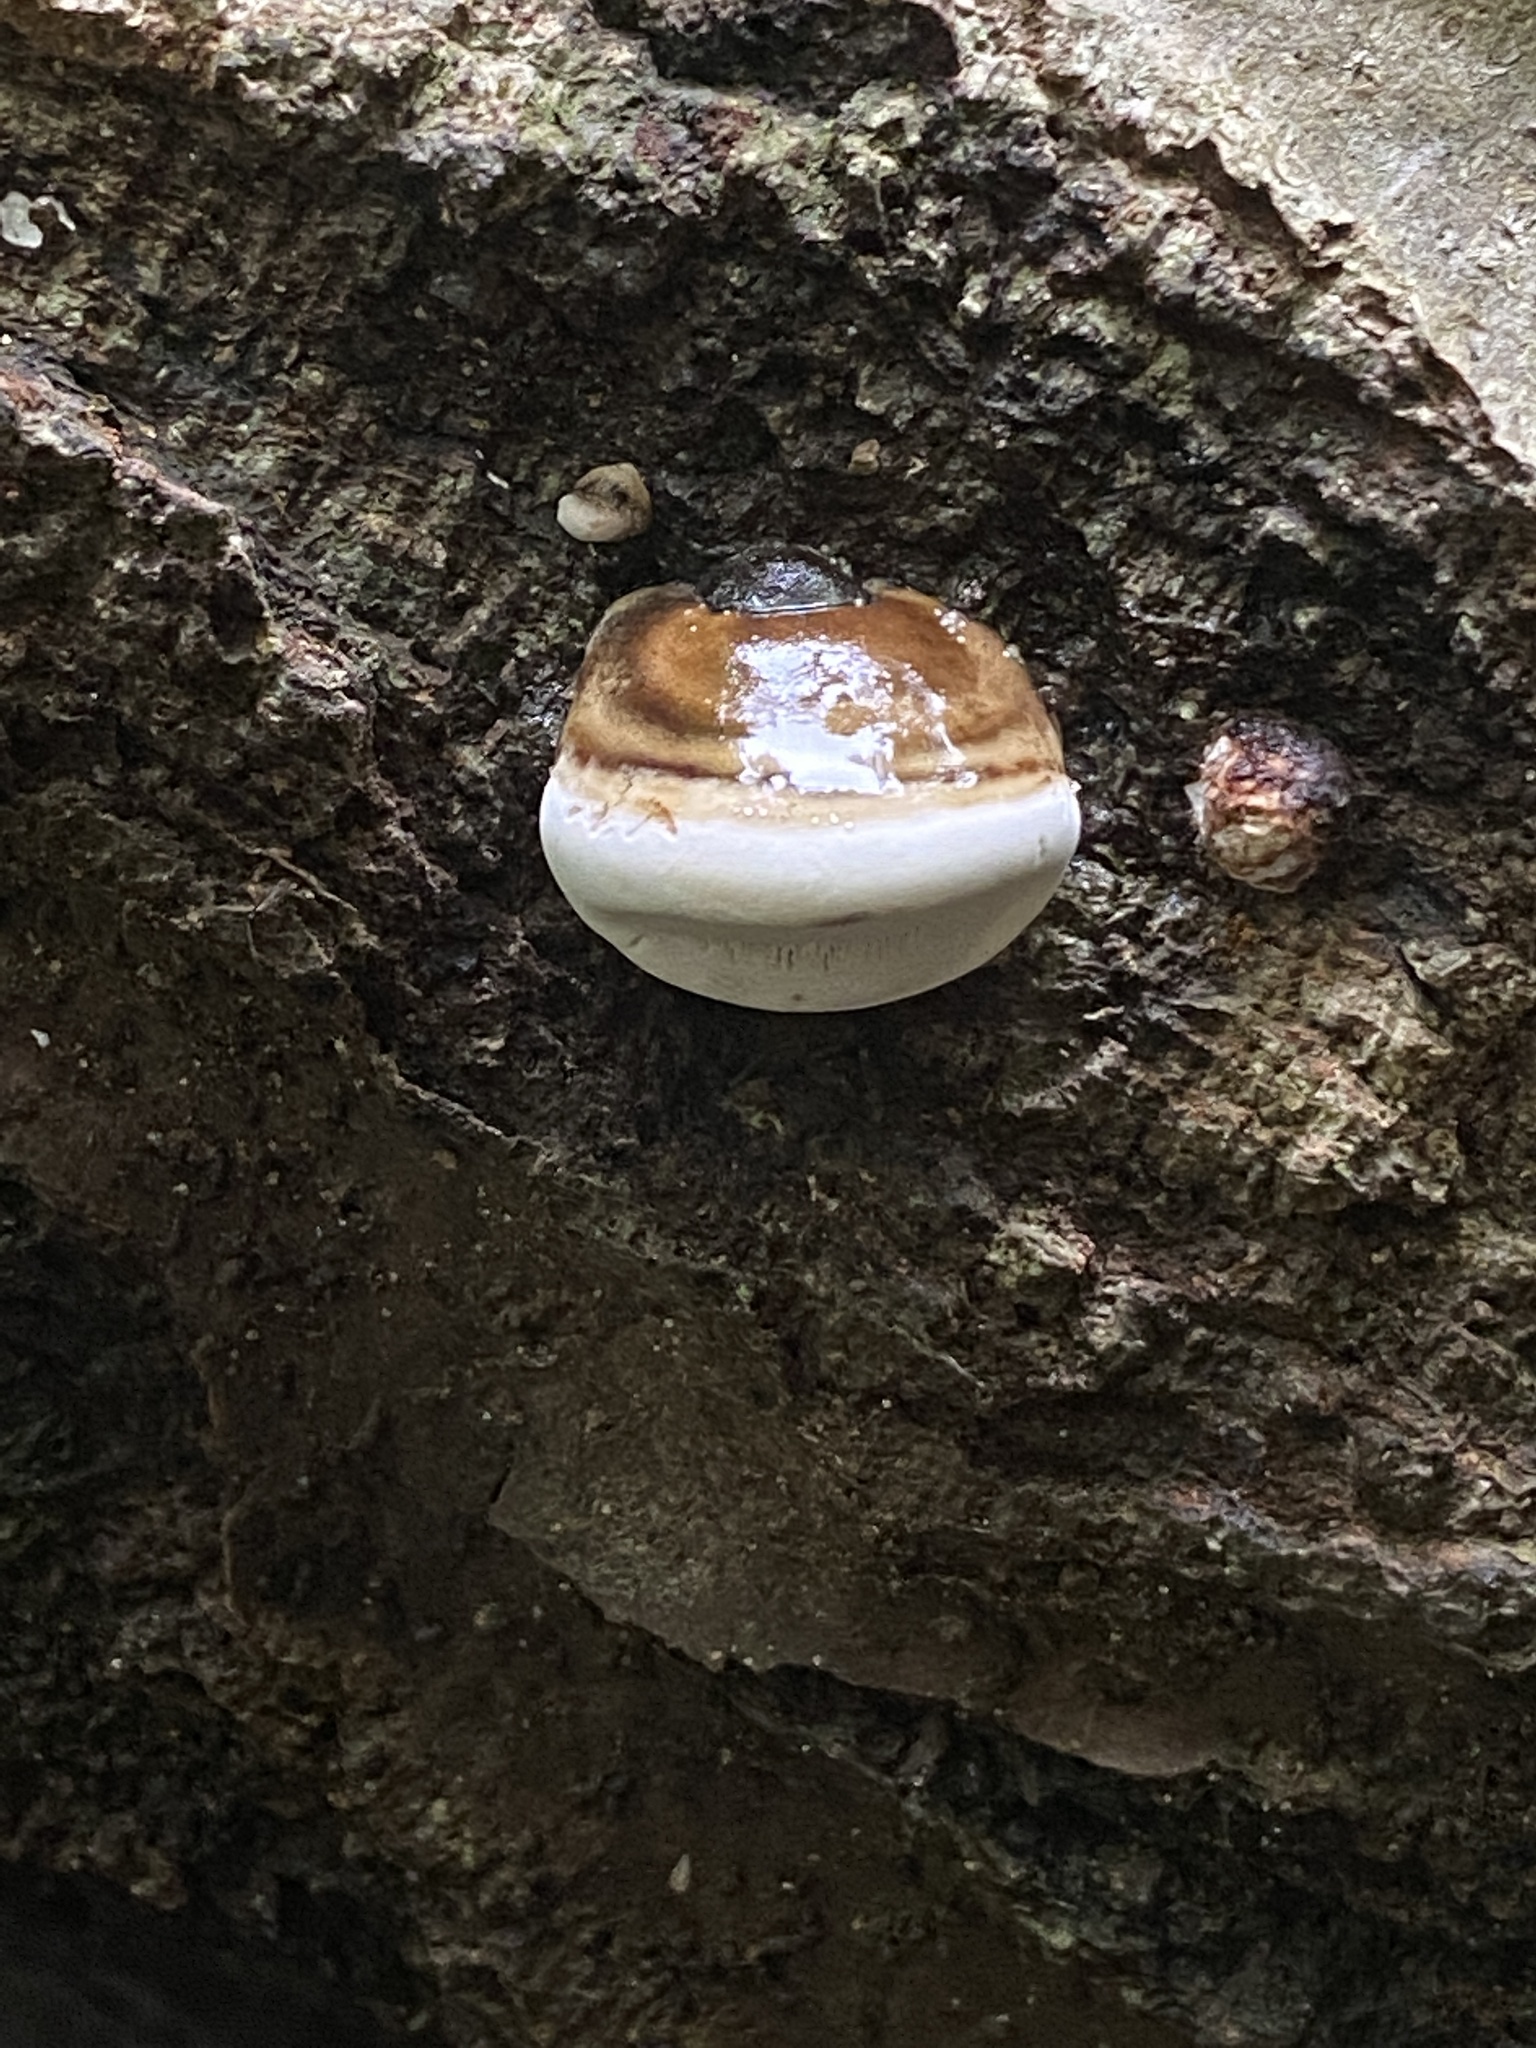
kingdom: Fungi
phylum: Basidiomycota
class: Agaricomycetes
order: Polyporales
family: Polyporaceae
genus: Ganoderma
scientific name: Ganoderma applanatum
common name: Artist's bracket
